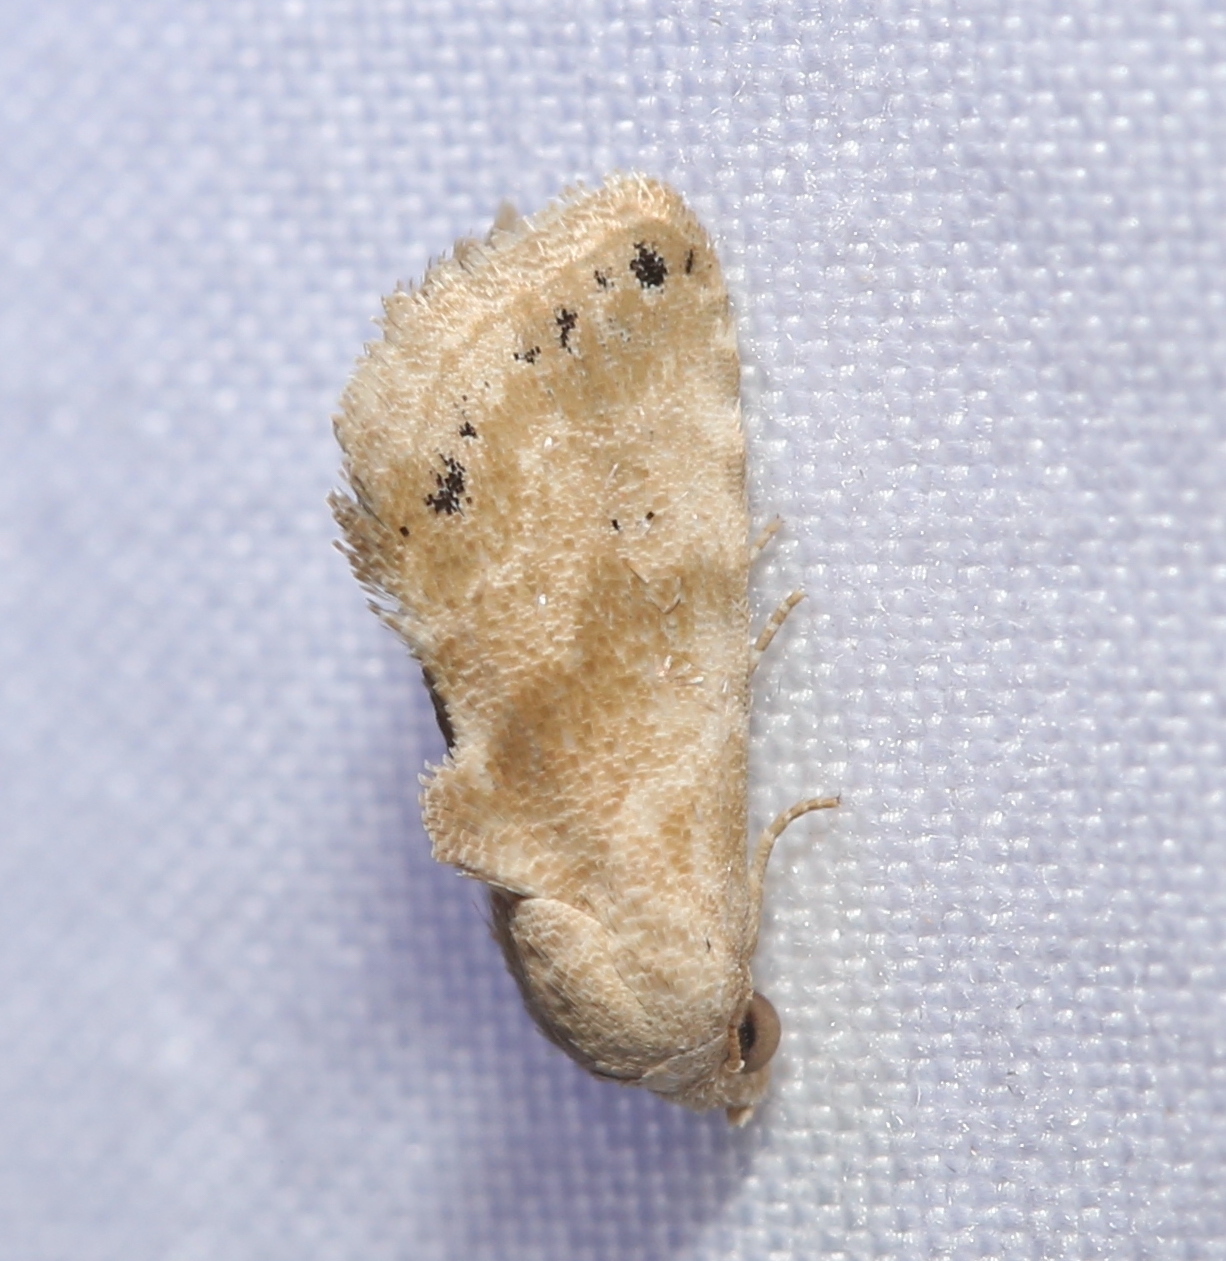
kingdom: Animalia
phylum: Arthropoda
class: Insecta
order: Lepidoptera
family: Noctuidae
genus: Eublemma
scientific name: Eublemma minima
